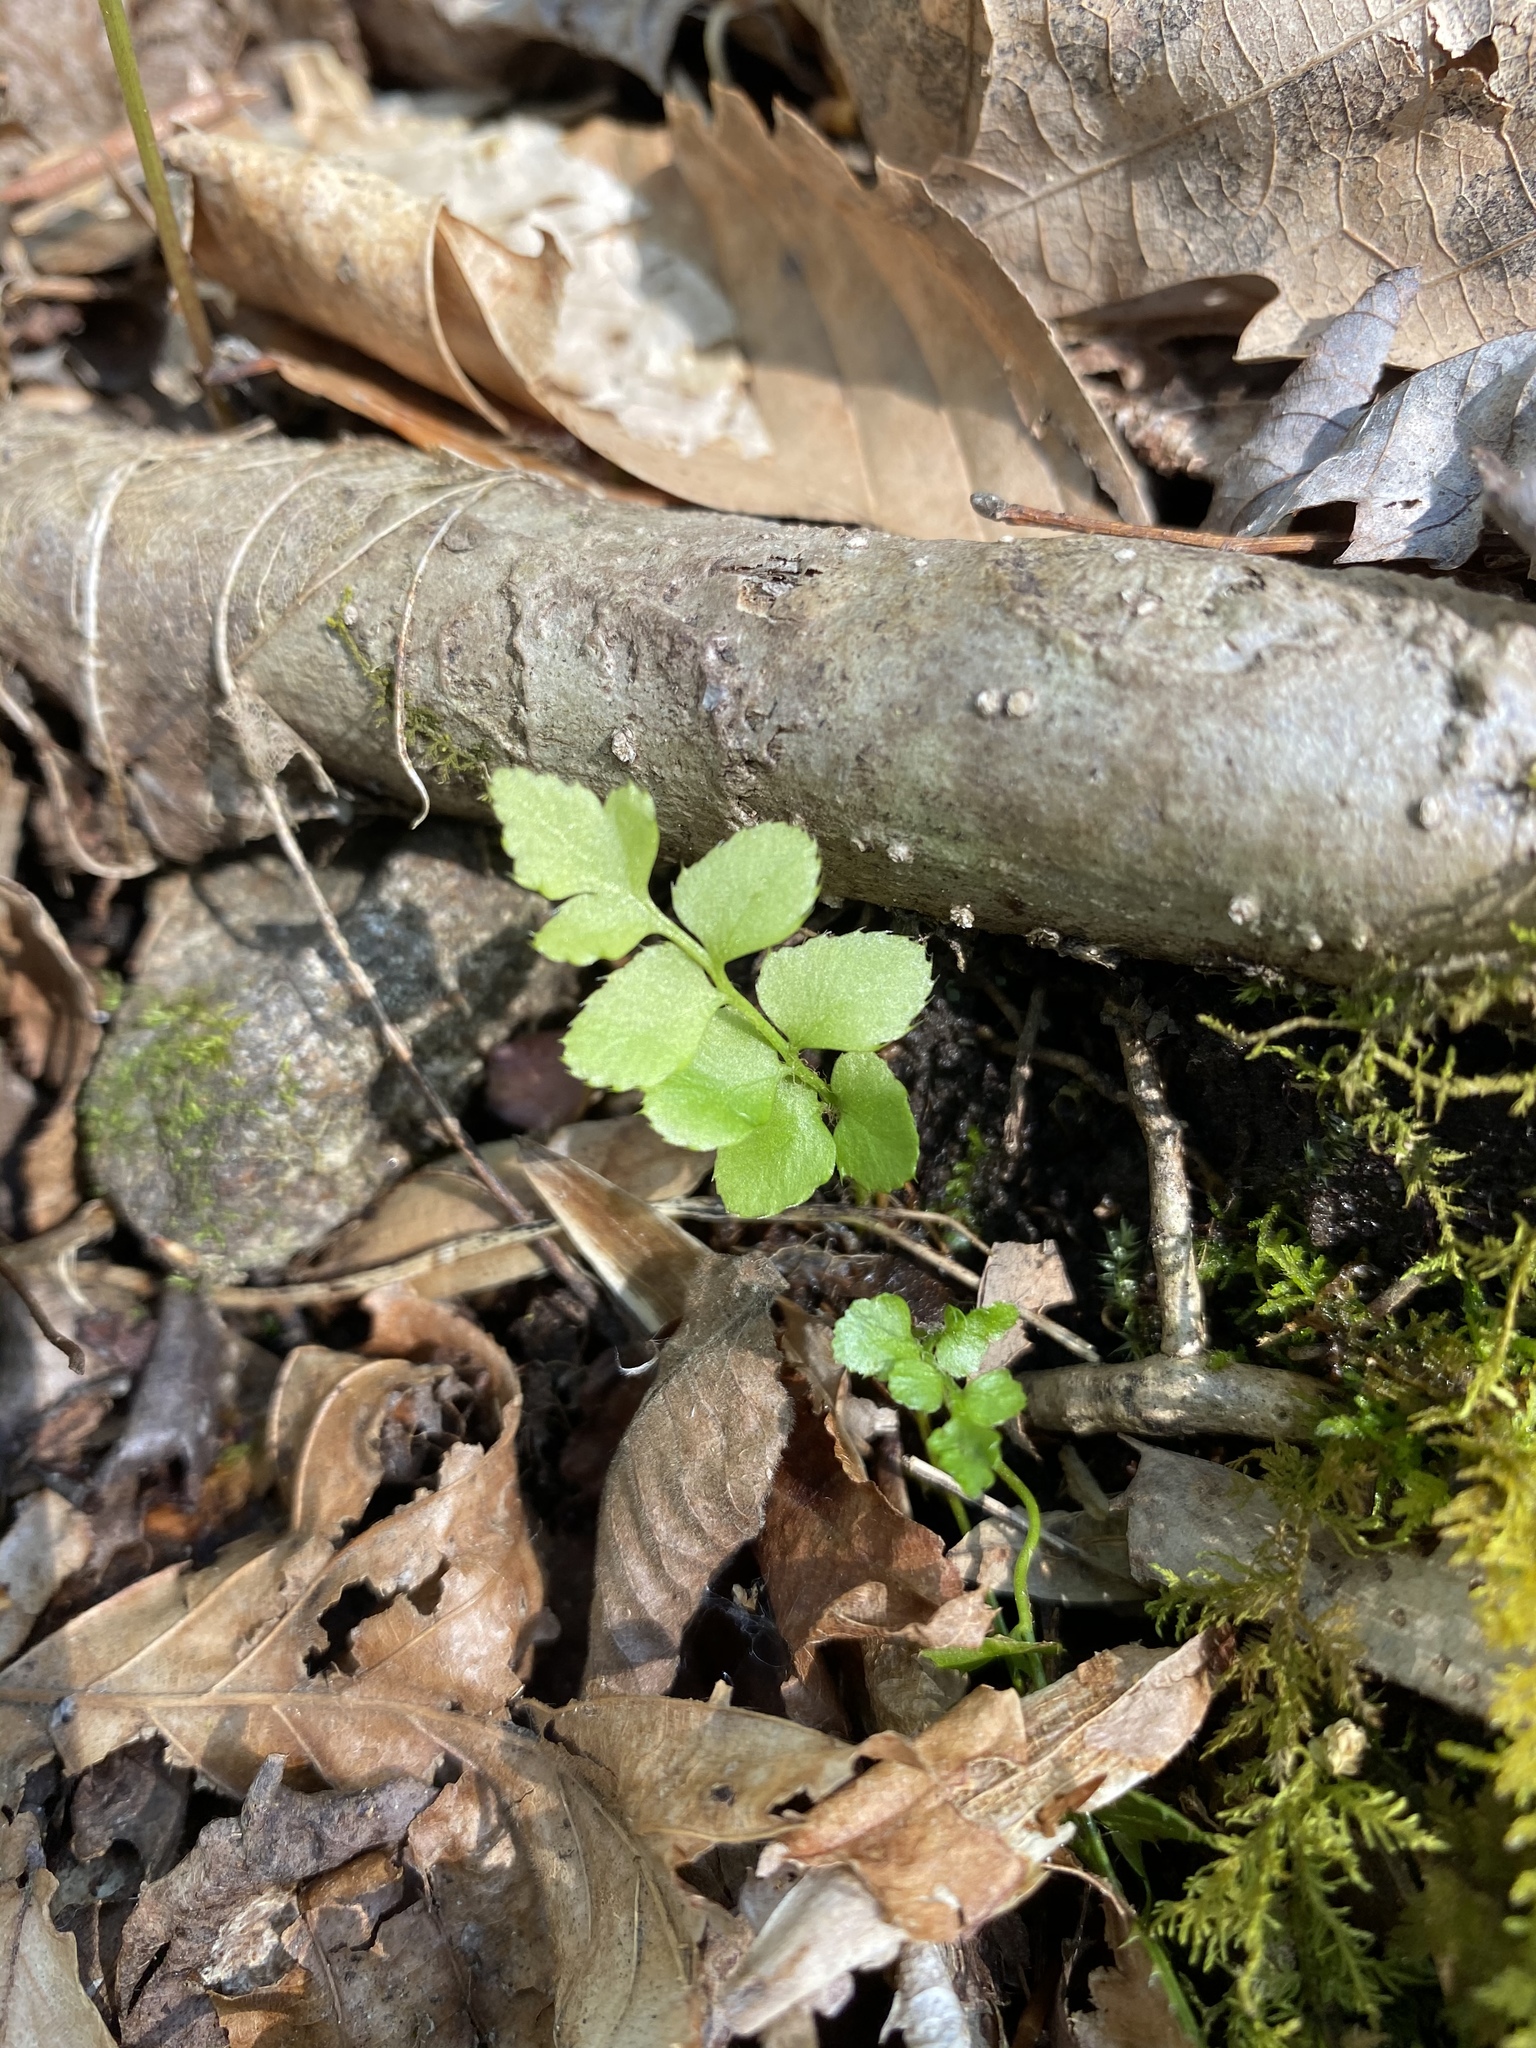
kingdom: Plantae
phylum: Tracheophyta
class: Polypodiopsida
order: Polypodiales
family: Dryopteridaceae
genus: Polystichum
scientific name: Polystichum acrostichoides
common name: Christmas fern
